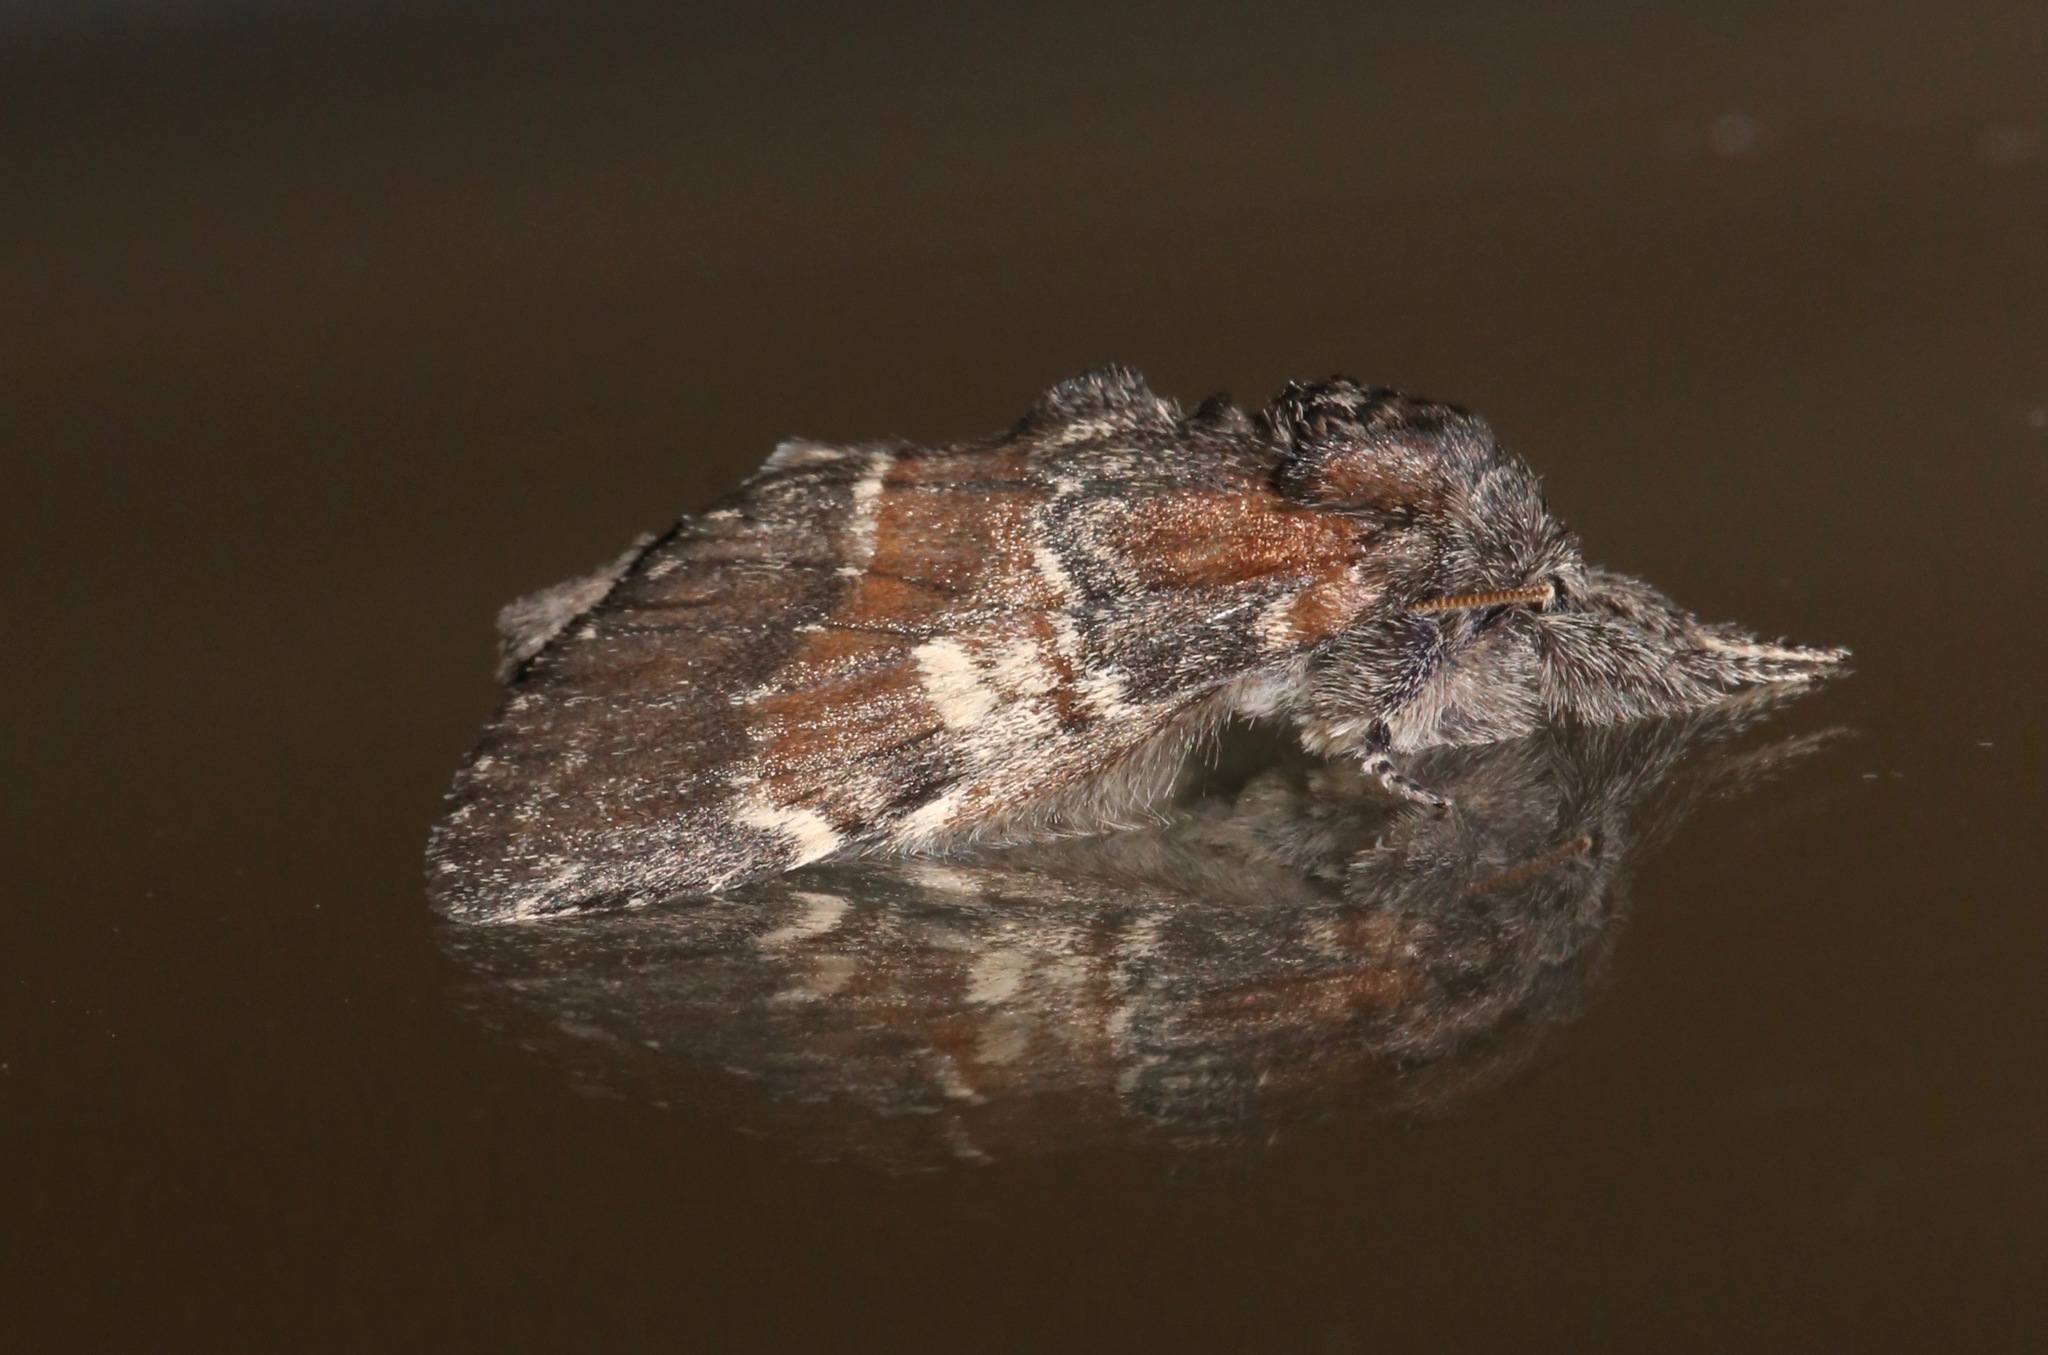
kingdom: Animalia
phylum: Arthropoda
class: Insecta
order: Lepidoptera
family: Notodontidae
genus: Peridea
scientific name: Peridea ferruginea
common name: Chocolate prominent
